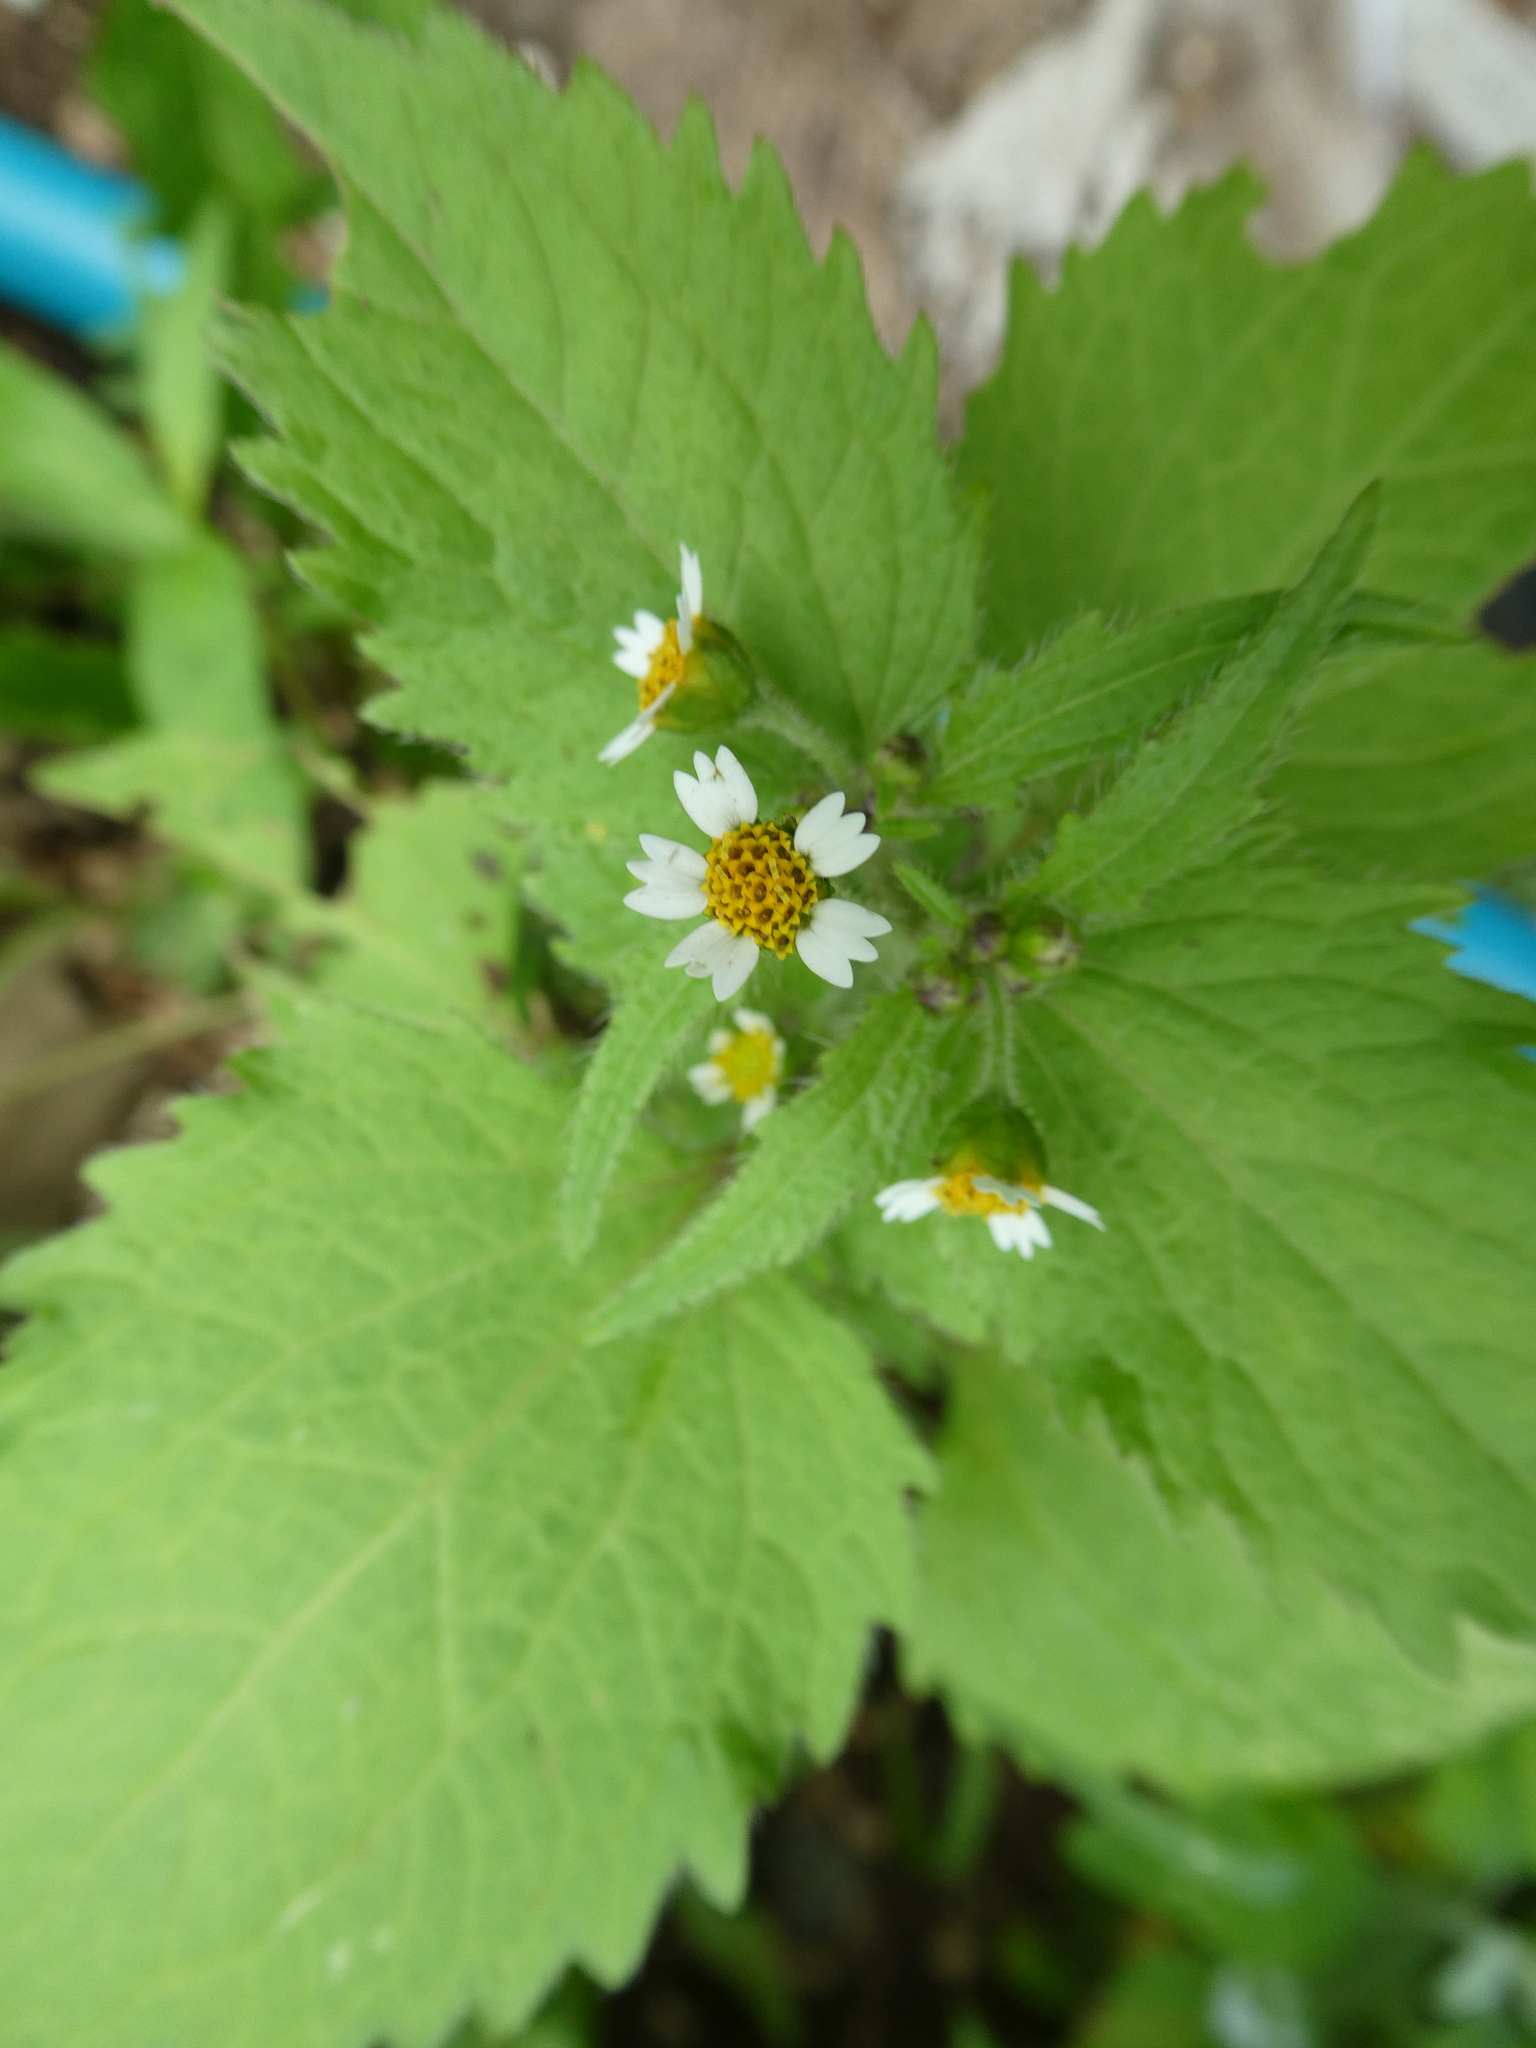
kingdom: Plantae
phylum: Tracheophyta
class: Magnoliopsida
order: Asterales
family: Asteraceae
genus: Galinsoga
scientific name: Galinsoga quadriradiata
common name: Shaggy soldier
